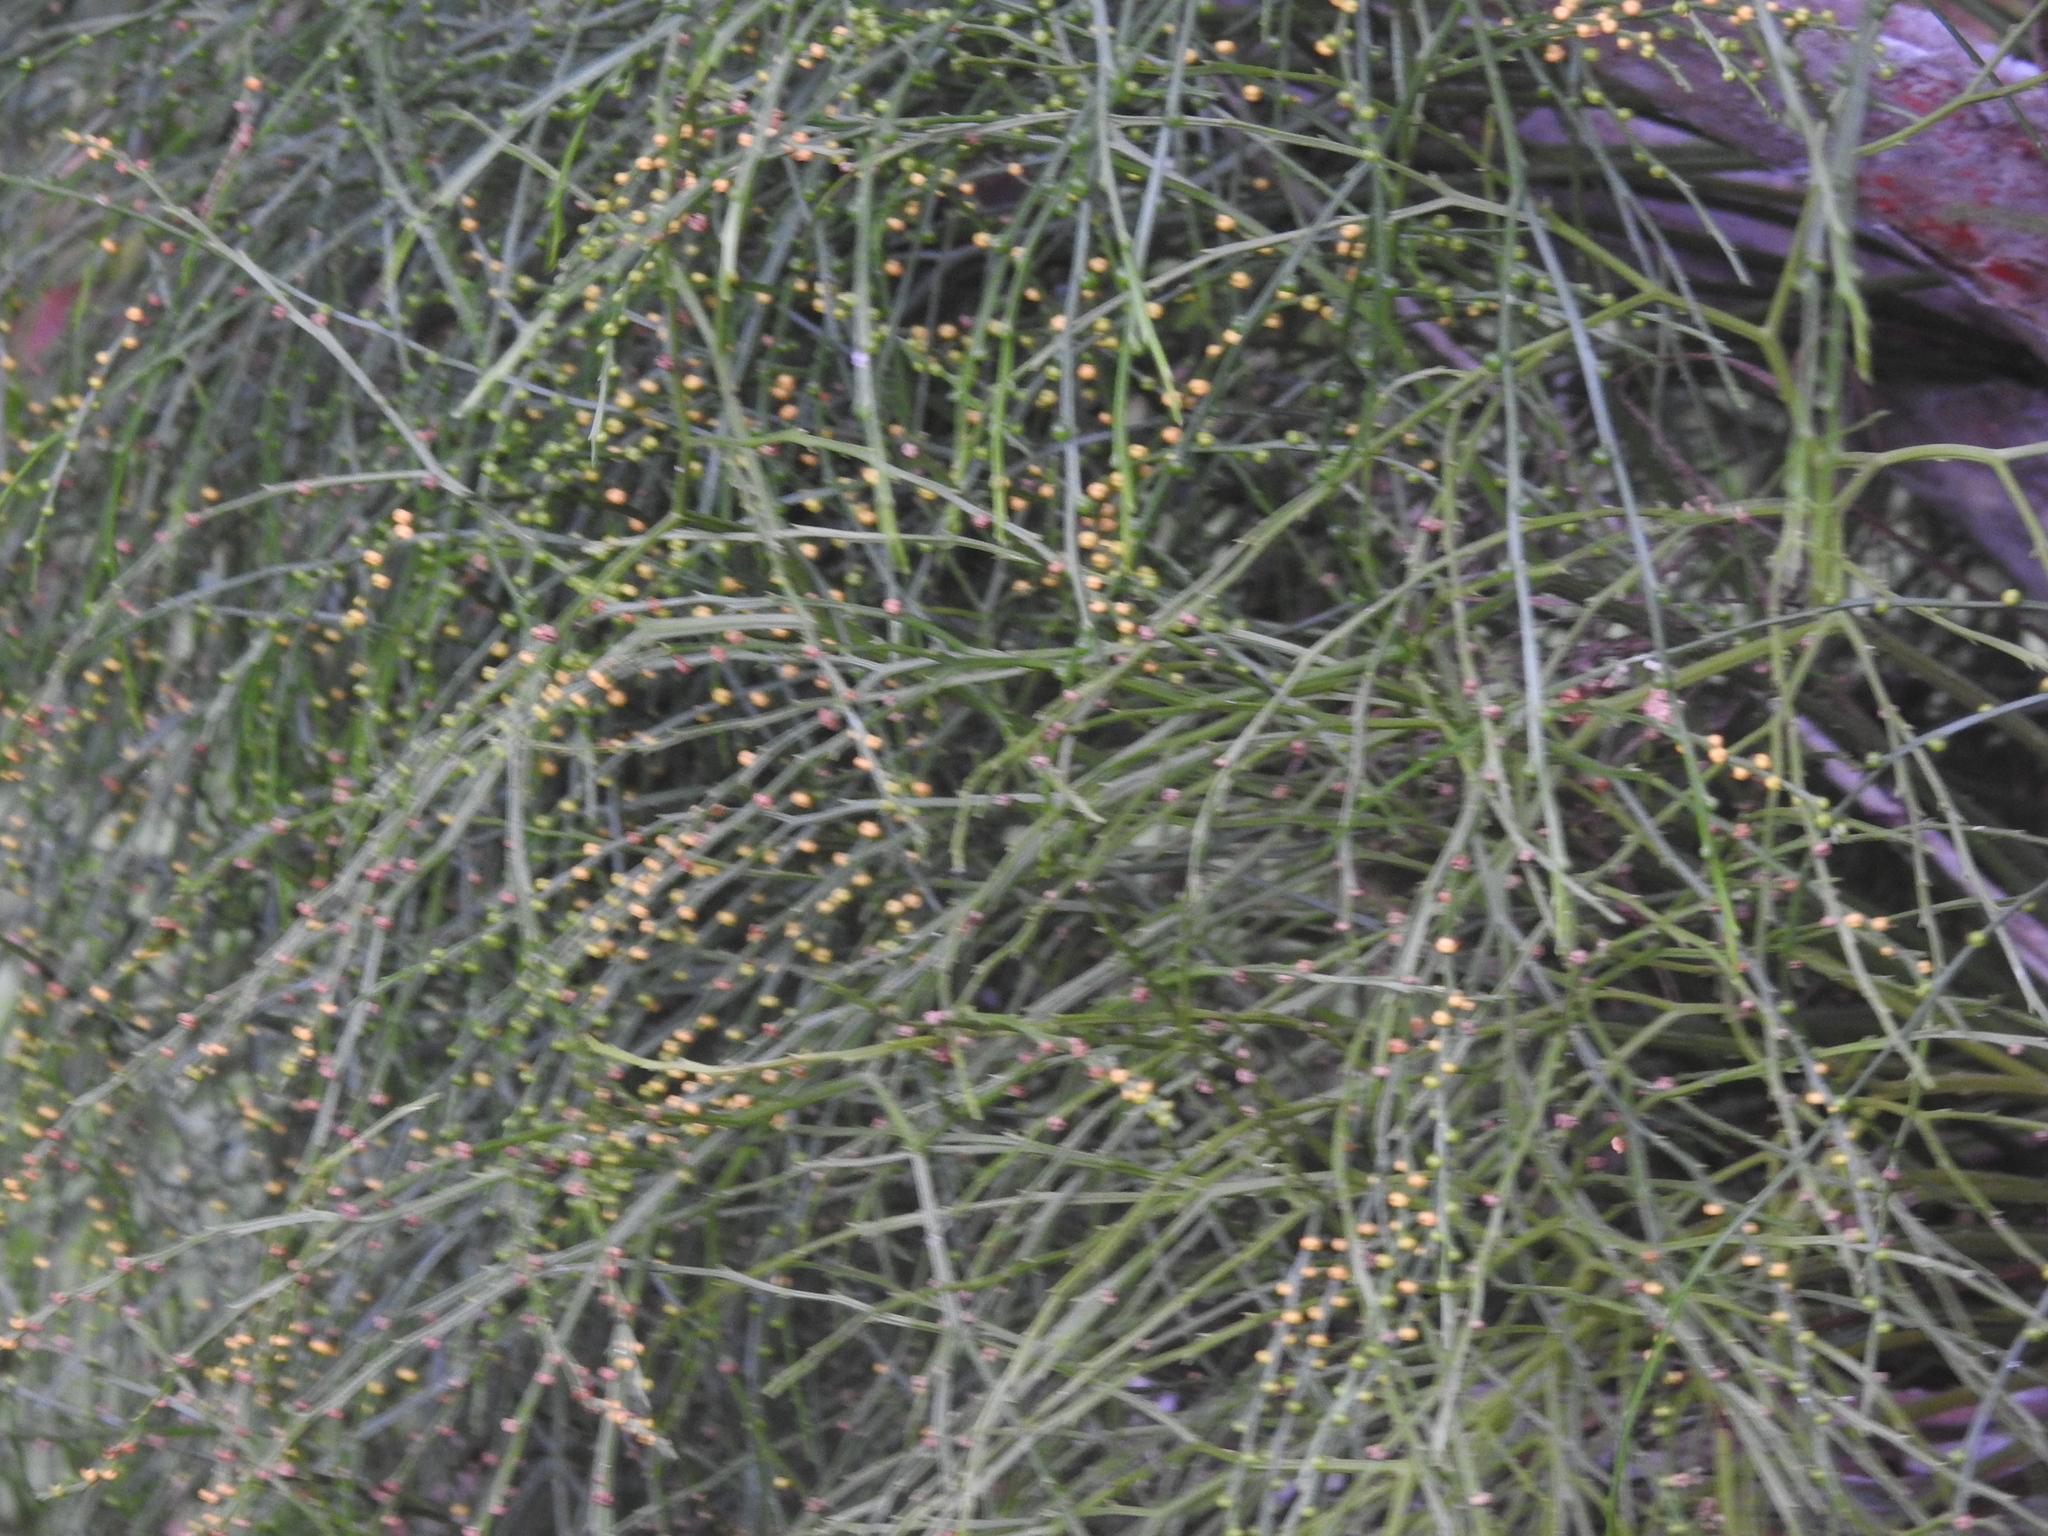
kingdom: Plantae
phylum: Tracheophyta
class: Polypodiopsida
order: Psilotales
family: Psilotaceae
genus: Psilotum
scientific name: Psilotum nudum
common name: Skeleton fork fern
